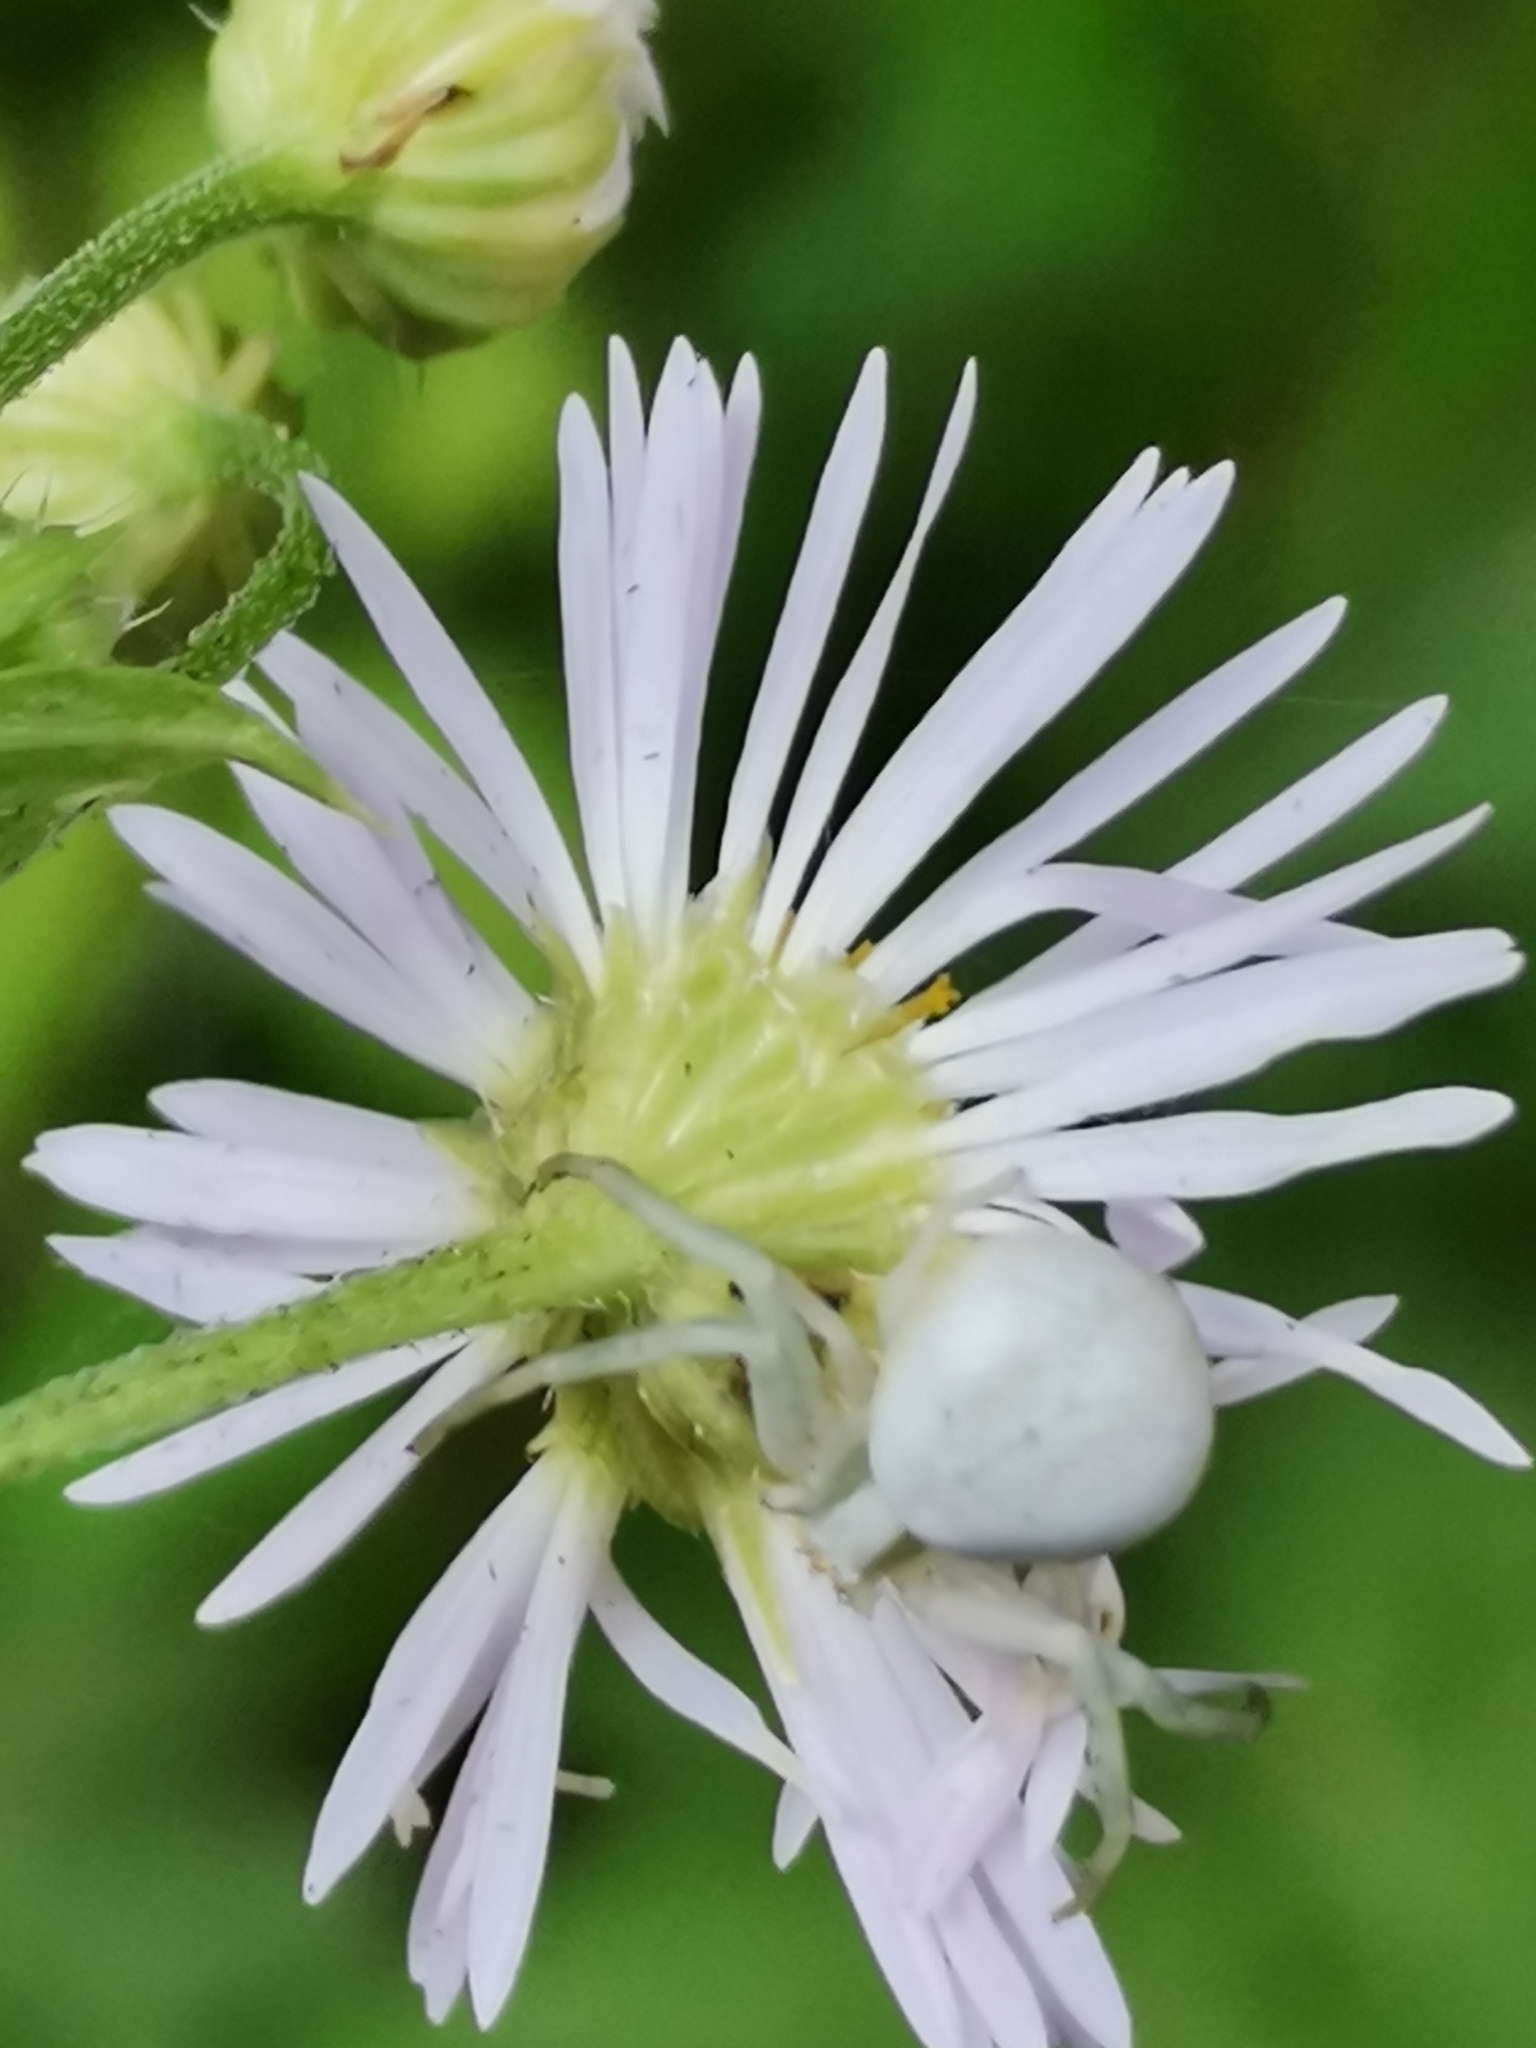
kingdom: Animalia
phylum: Arthropoda
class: Arachnida
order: Araneae
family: Thomisidae
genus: Misumena
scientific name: Misumena vatia
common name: Goldenrod crab spider
